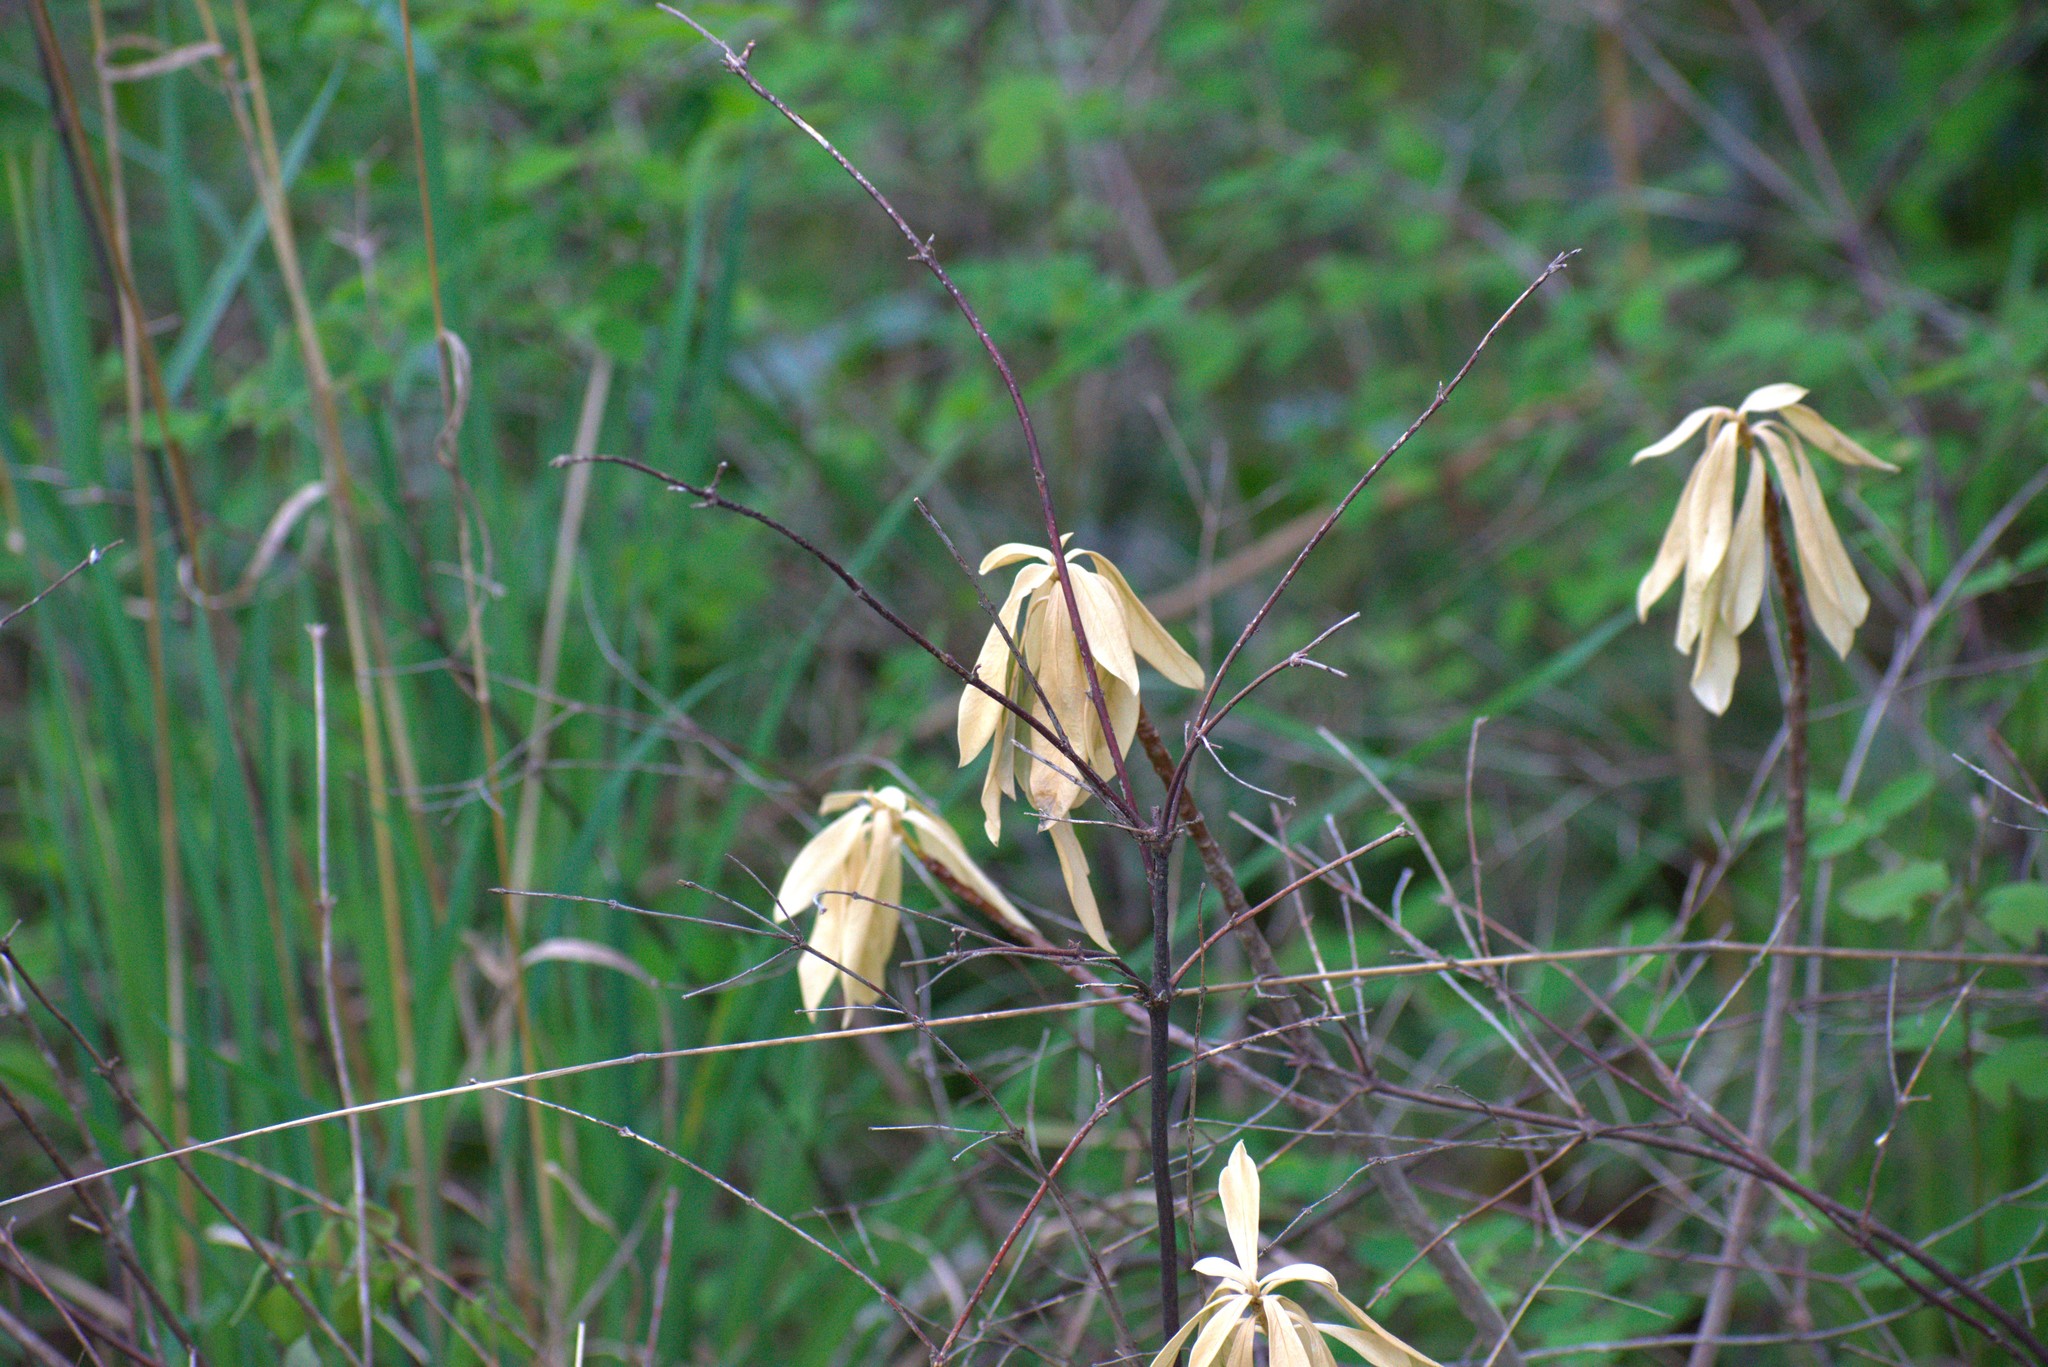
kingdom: Plantae
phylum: Tracheophyta
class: Magnoliopsida
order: Malvales
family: Thymelaeaceae
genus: Daphne
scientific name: Daphne laureola
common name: Spurge-laurel
